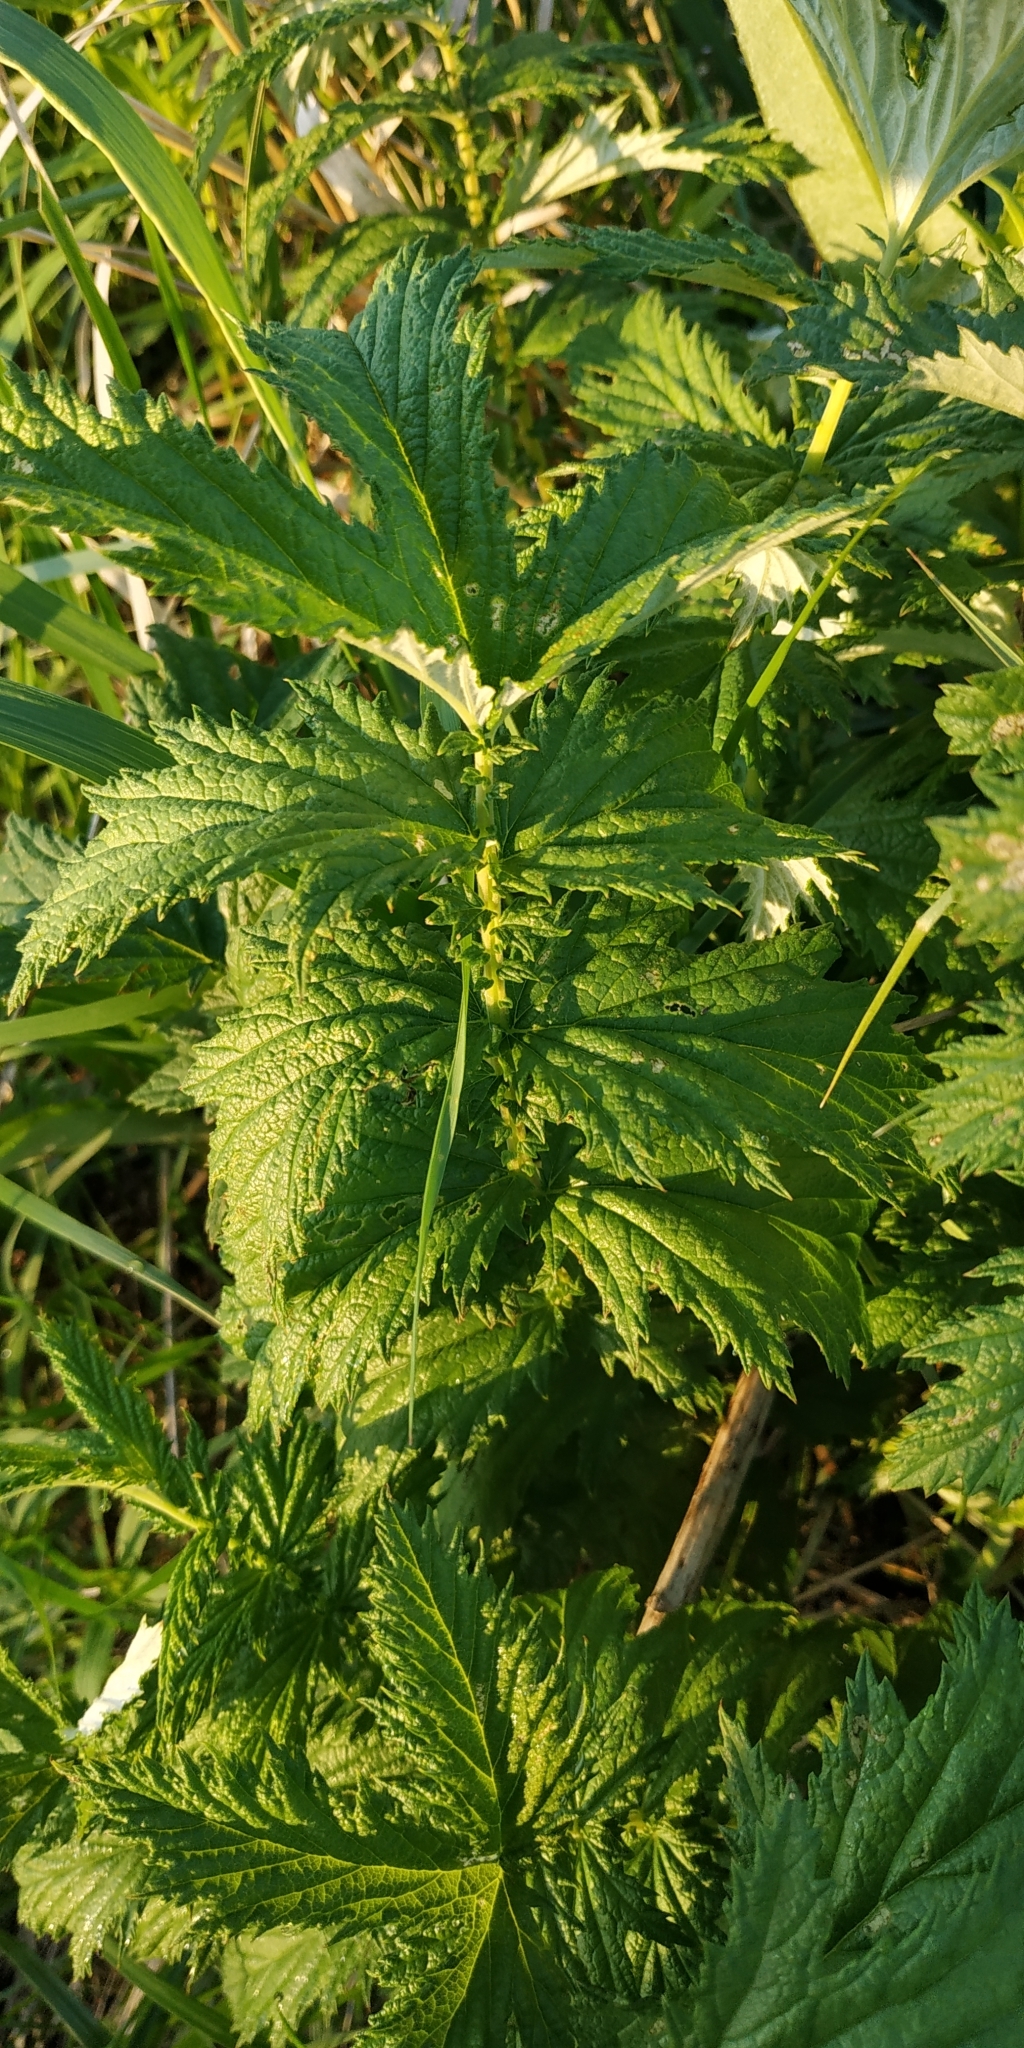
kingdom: Plantae
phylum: Tracheophyta
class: Magnoliopsida
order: Rosales
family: Rosaceae
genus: Filipendula
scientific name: Filipendula ulmaria
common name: Meadowsweet
